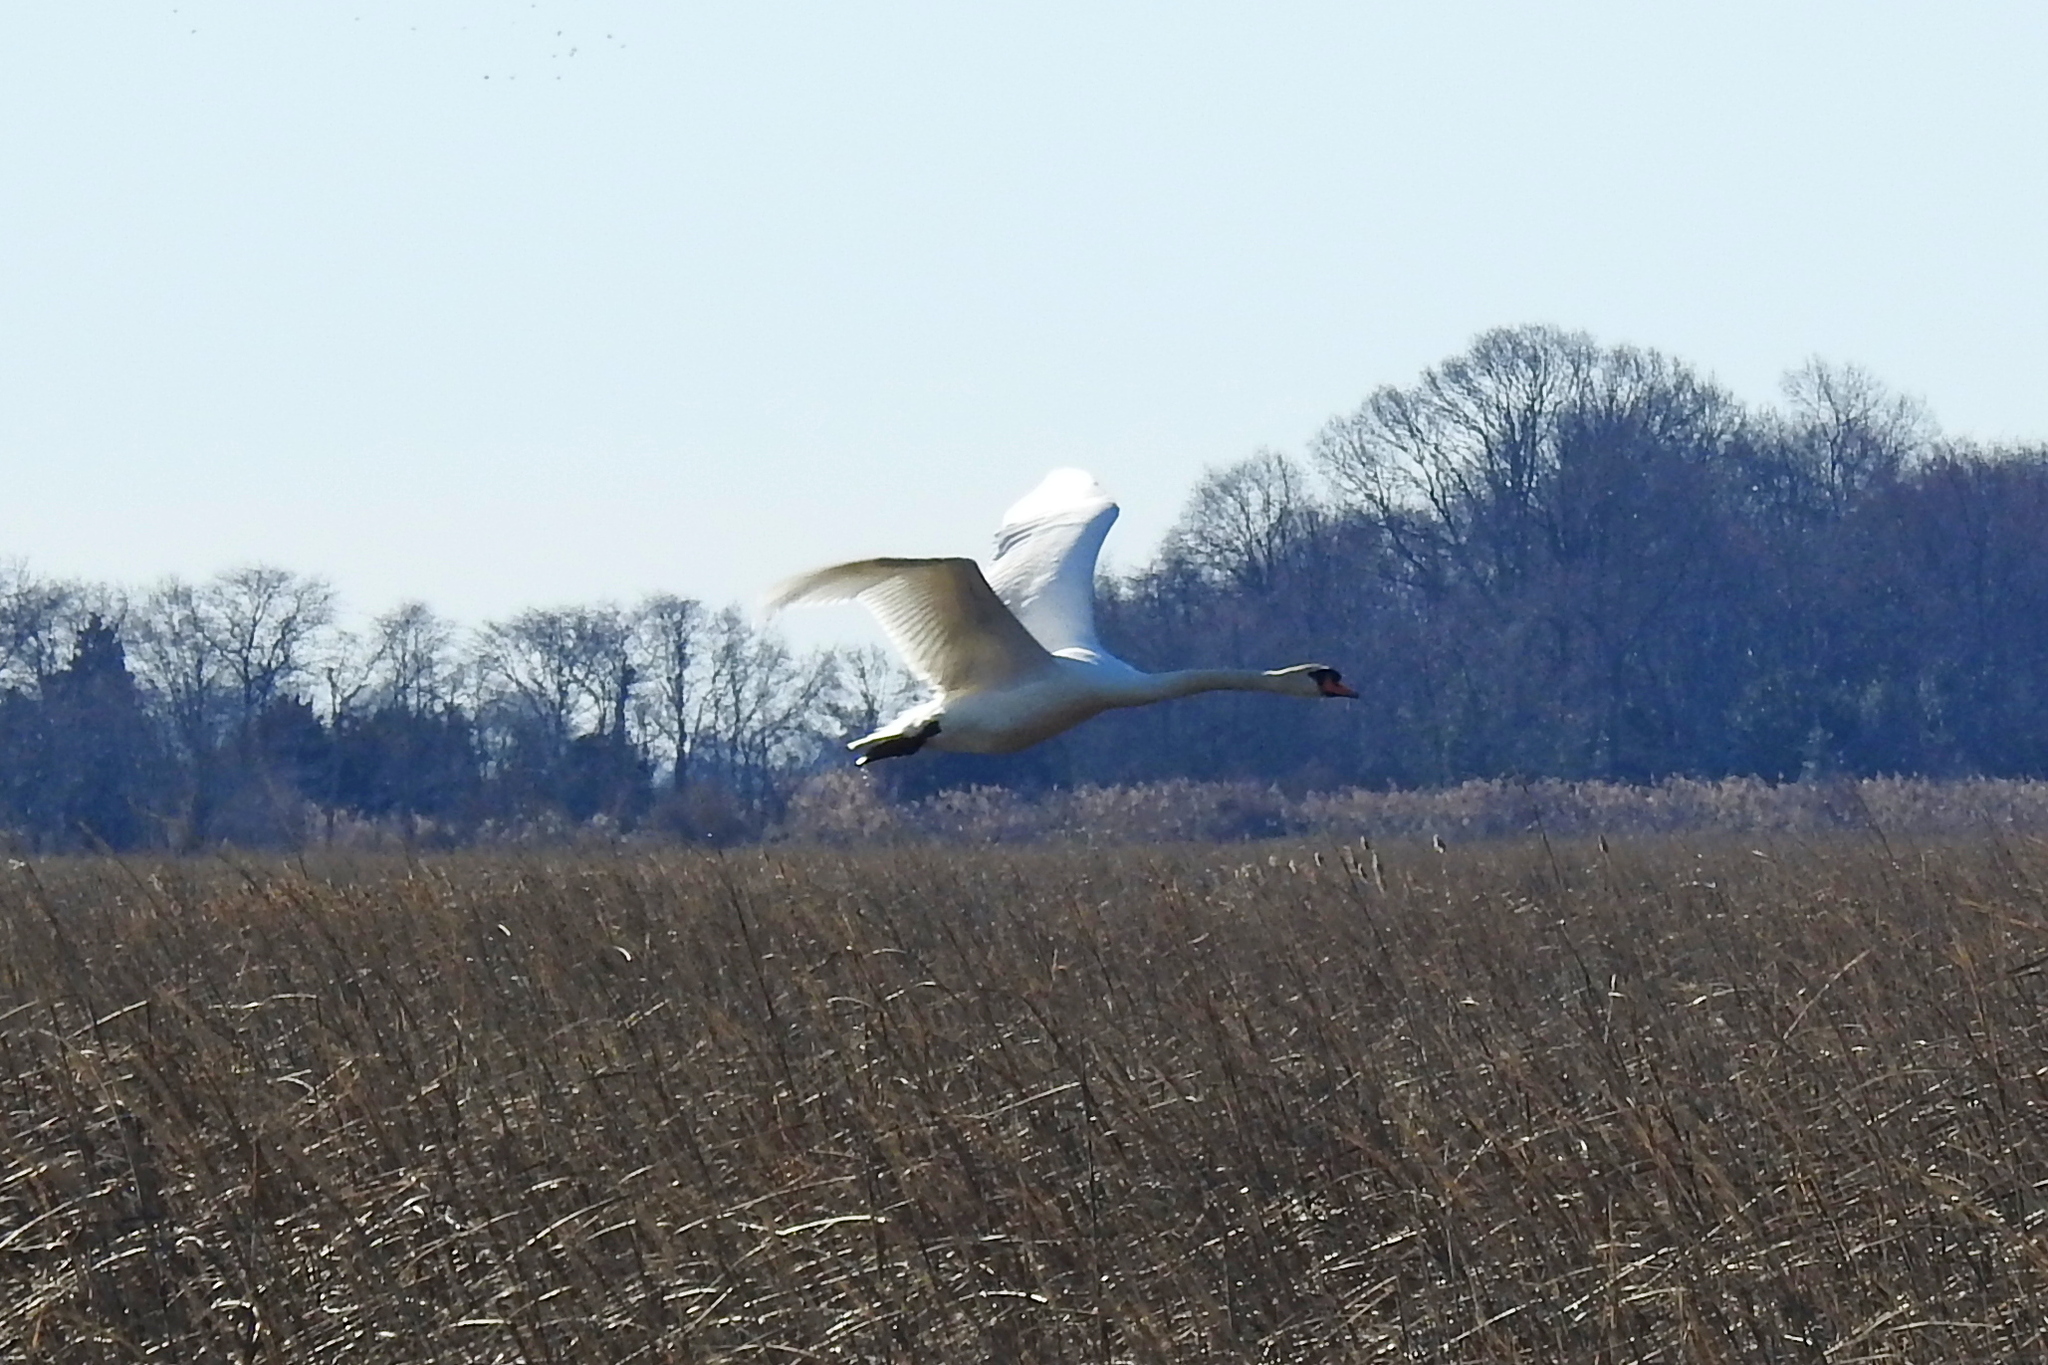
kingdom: Animalia
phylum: Chordata
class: Aves
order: Anseriformes
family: Anatidae
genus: Cygnus
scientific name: Cygnus olor
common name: Mute swan
